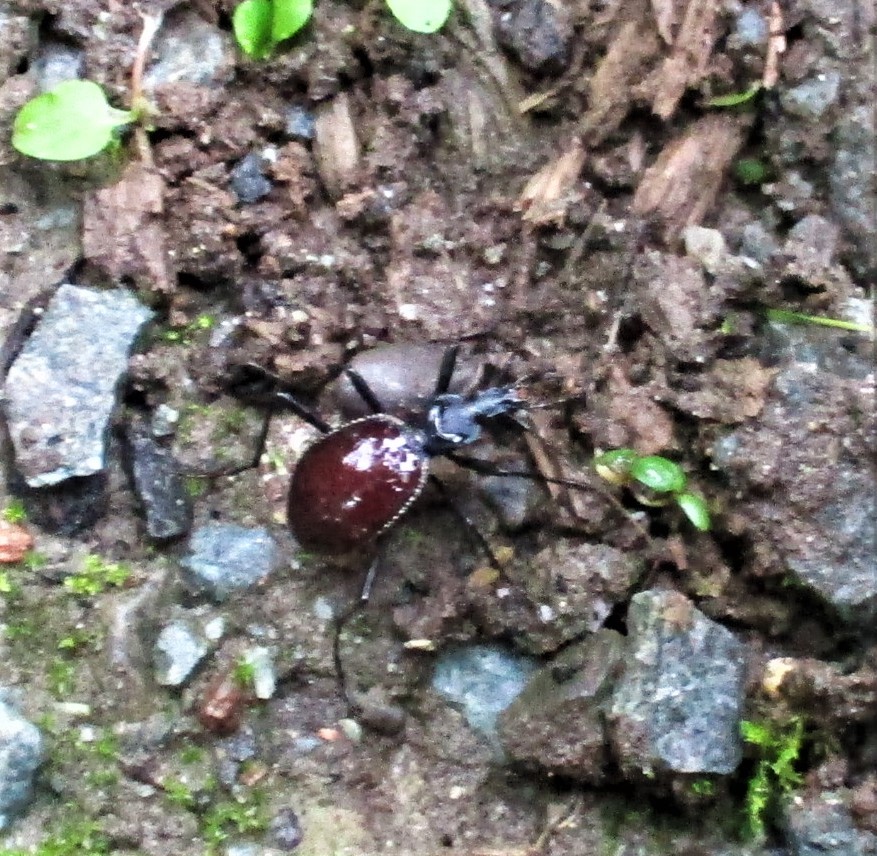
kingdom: Animalia
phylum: Arthropoda
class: Insecta
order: Coleoptera
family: Carabidae
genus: Scaphinotus
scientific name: Scaphinotus angusticollis
